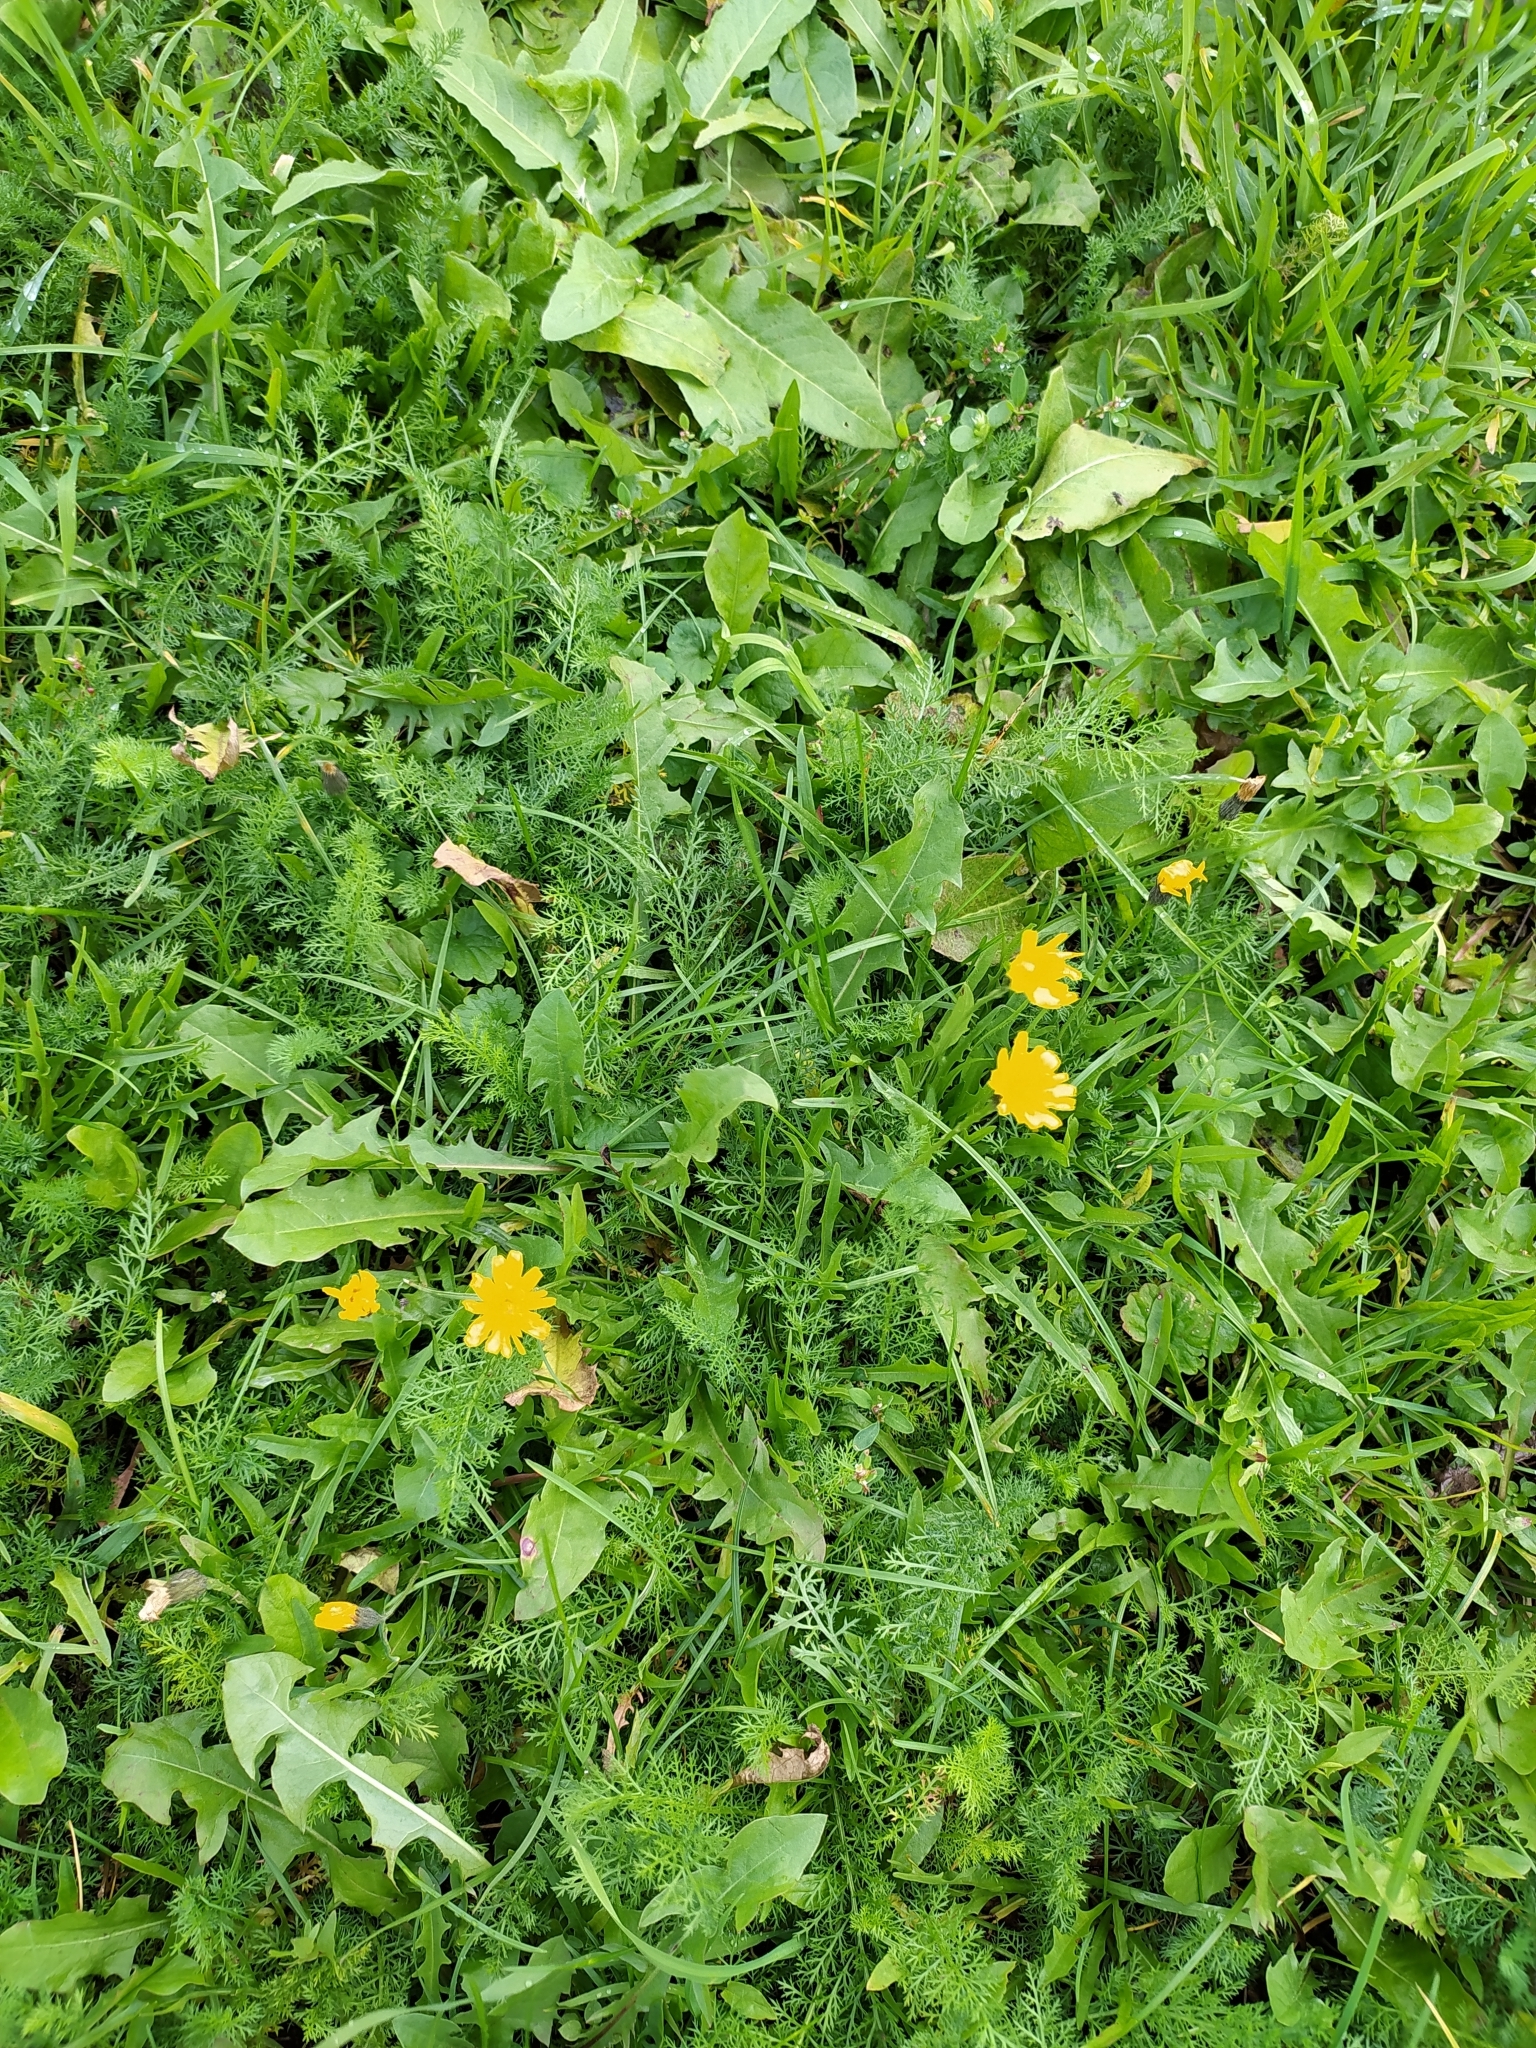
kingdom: Plantae
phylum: Tracheophyta
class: Magnoliopsida
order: Asterales
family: Asteraceae
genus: Scorzoneroides
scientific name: Scorzoneroides autumnalis
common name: Autumn hawkbit
